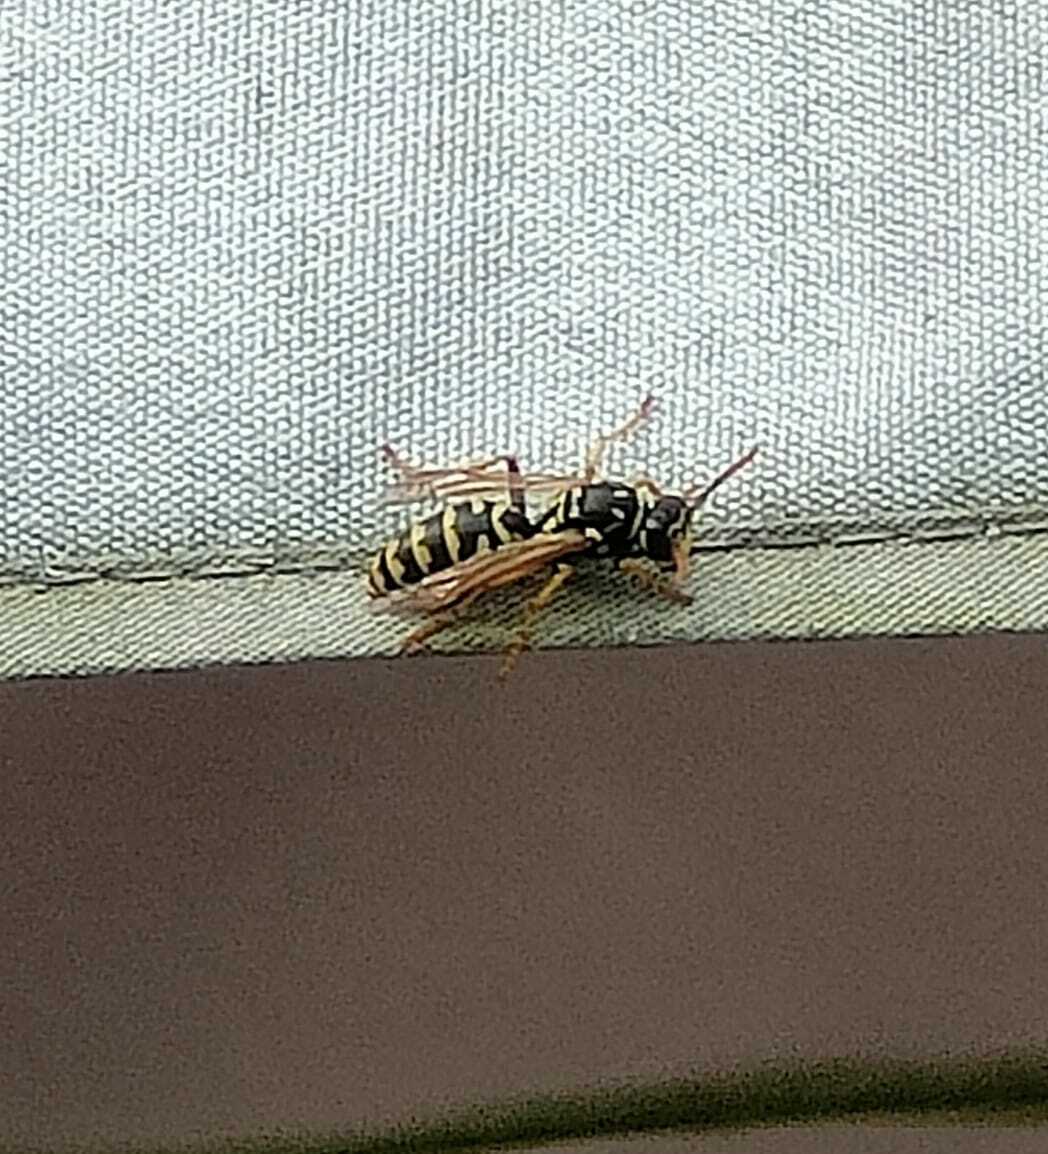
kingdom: Animalia
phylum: Arthropoda
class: Insecta
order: Hymenoptera
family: Eumenidae
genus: Polistes
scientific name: Polistes dominula
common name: Paper wasp
